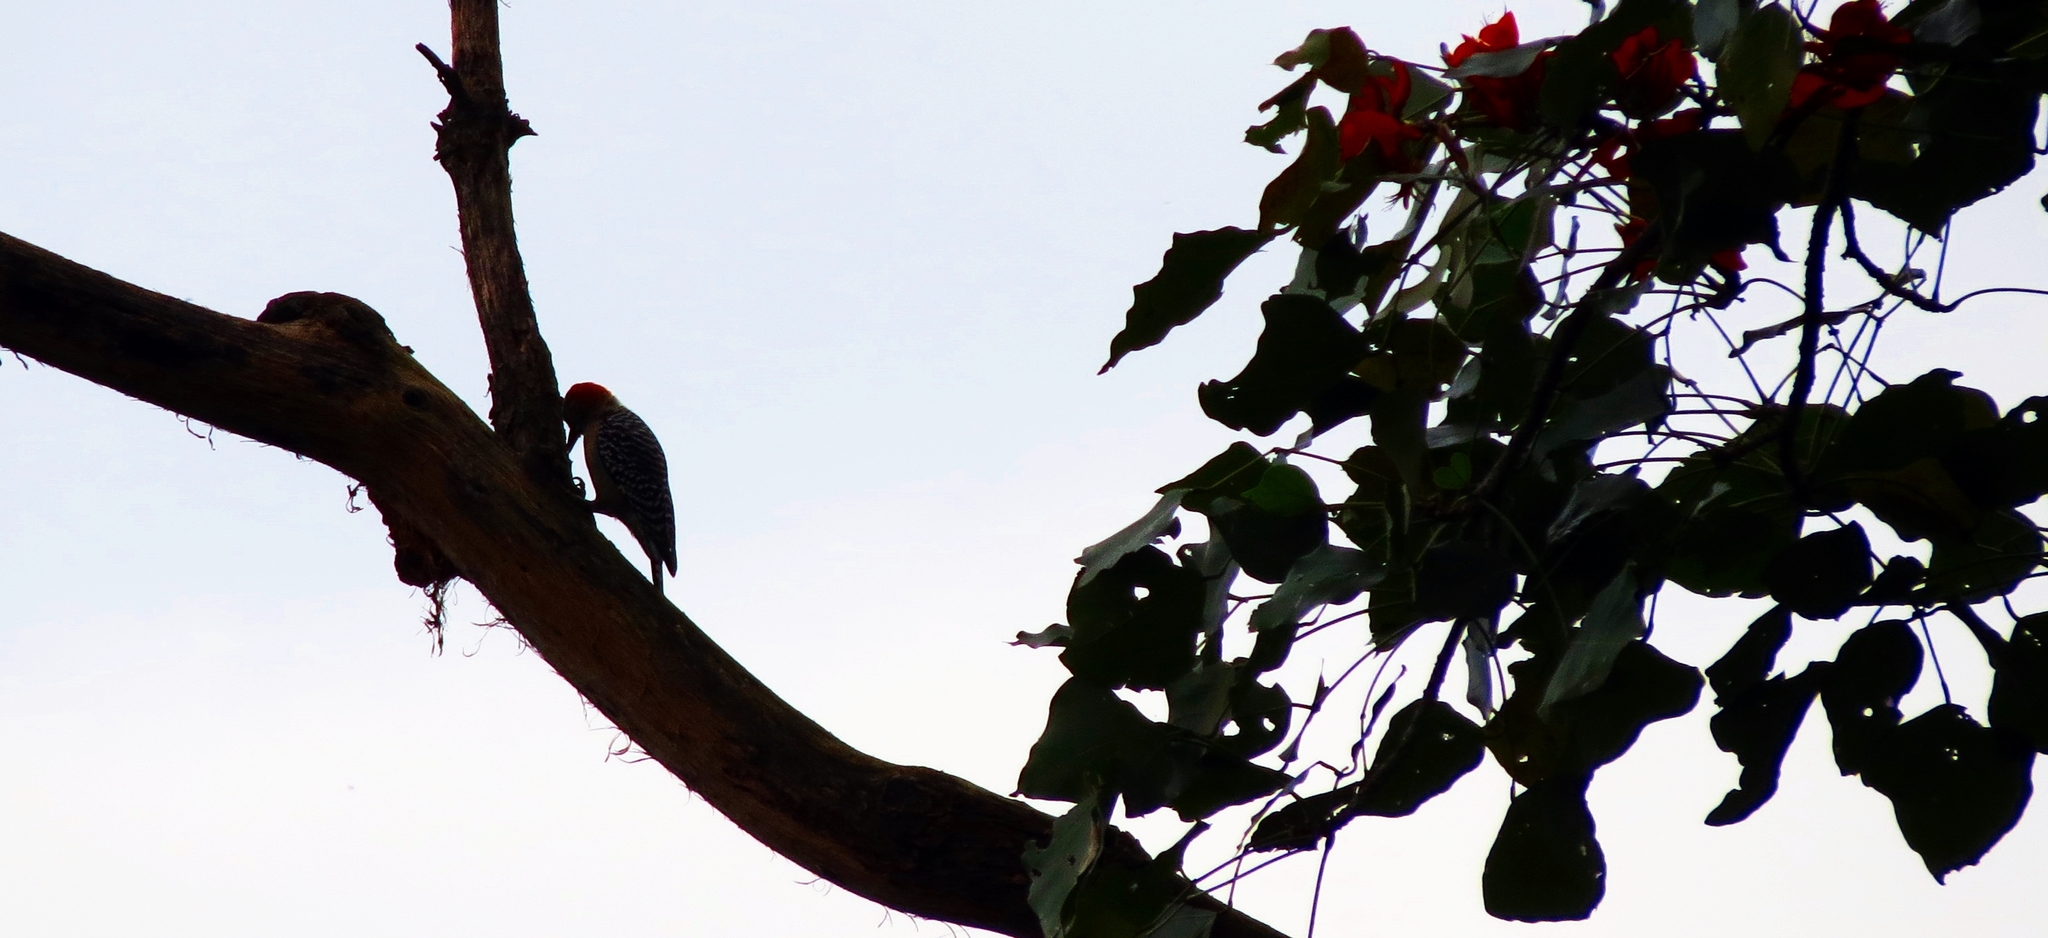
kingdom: Animalia
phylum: Chordata
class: Aves
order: Piciformes
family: Picidae
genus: Melanerpes
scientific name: Melanerpes rubricapillus
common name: Red-crowned woodpecker
